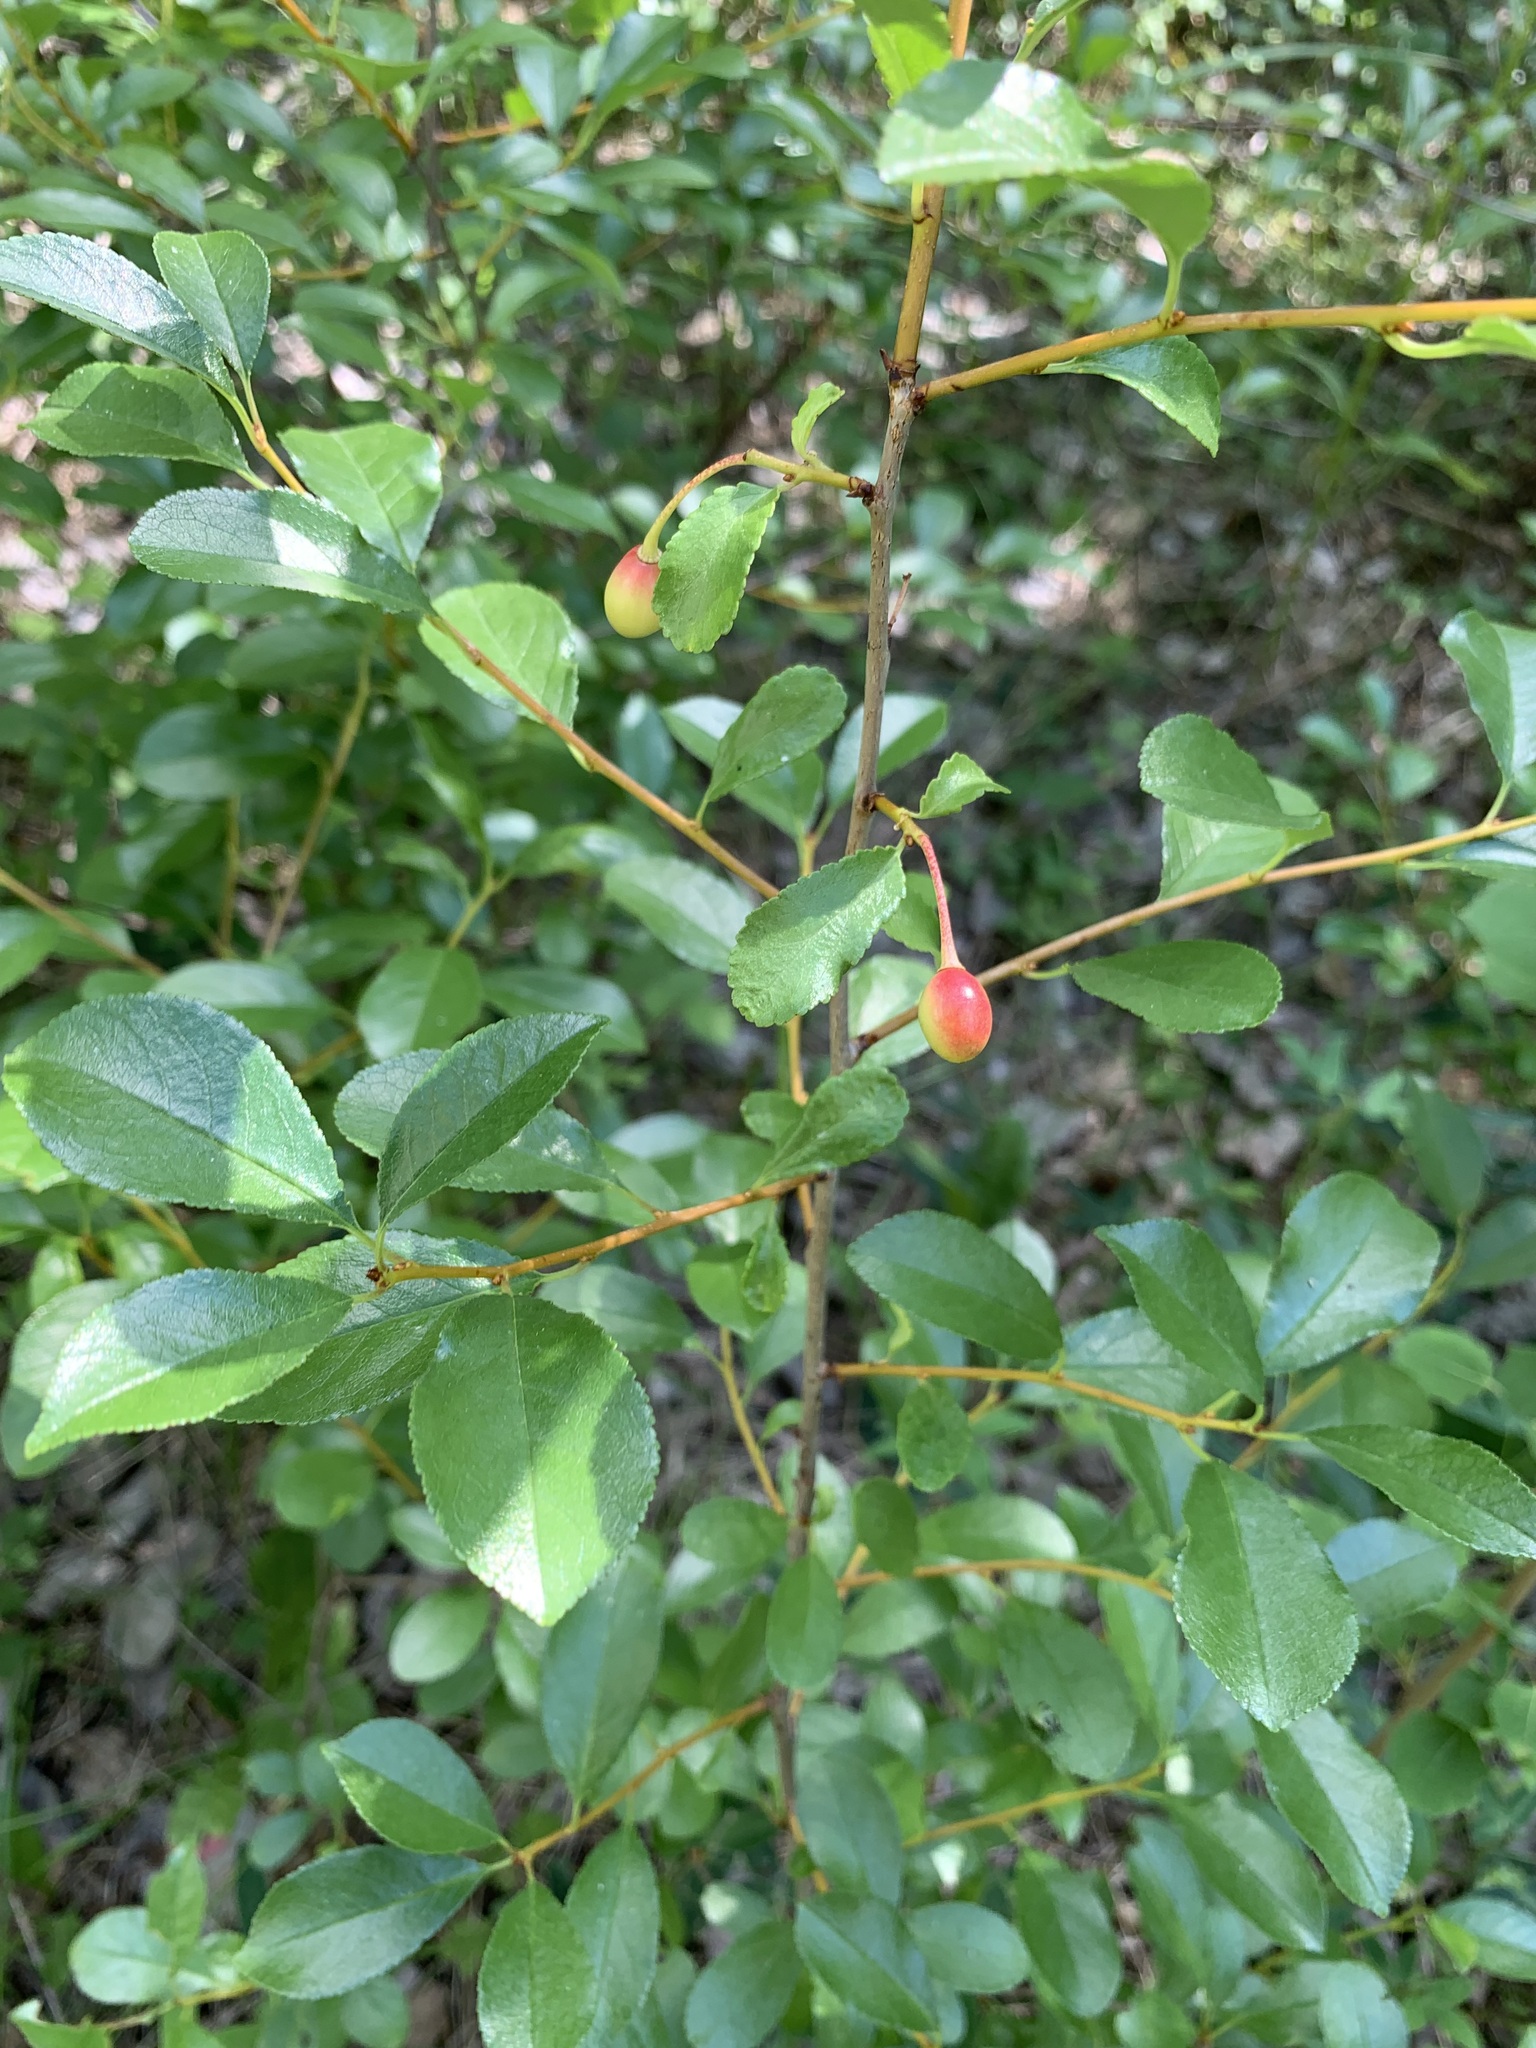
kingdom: Plantae
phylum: Tracheophyta
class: Magnoliopsida
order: Rosales
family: Rosaceae
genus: Prunus
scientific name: Prunus fruticosa
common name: European dwarf cherry
